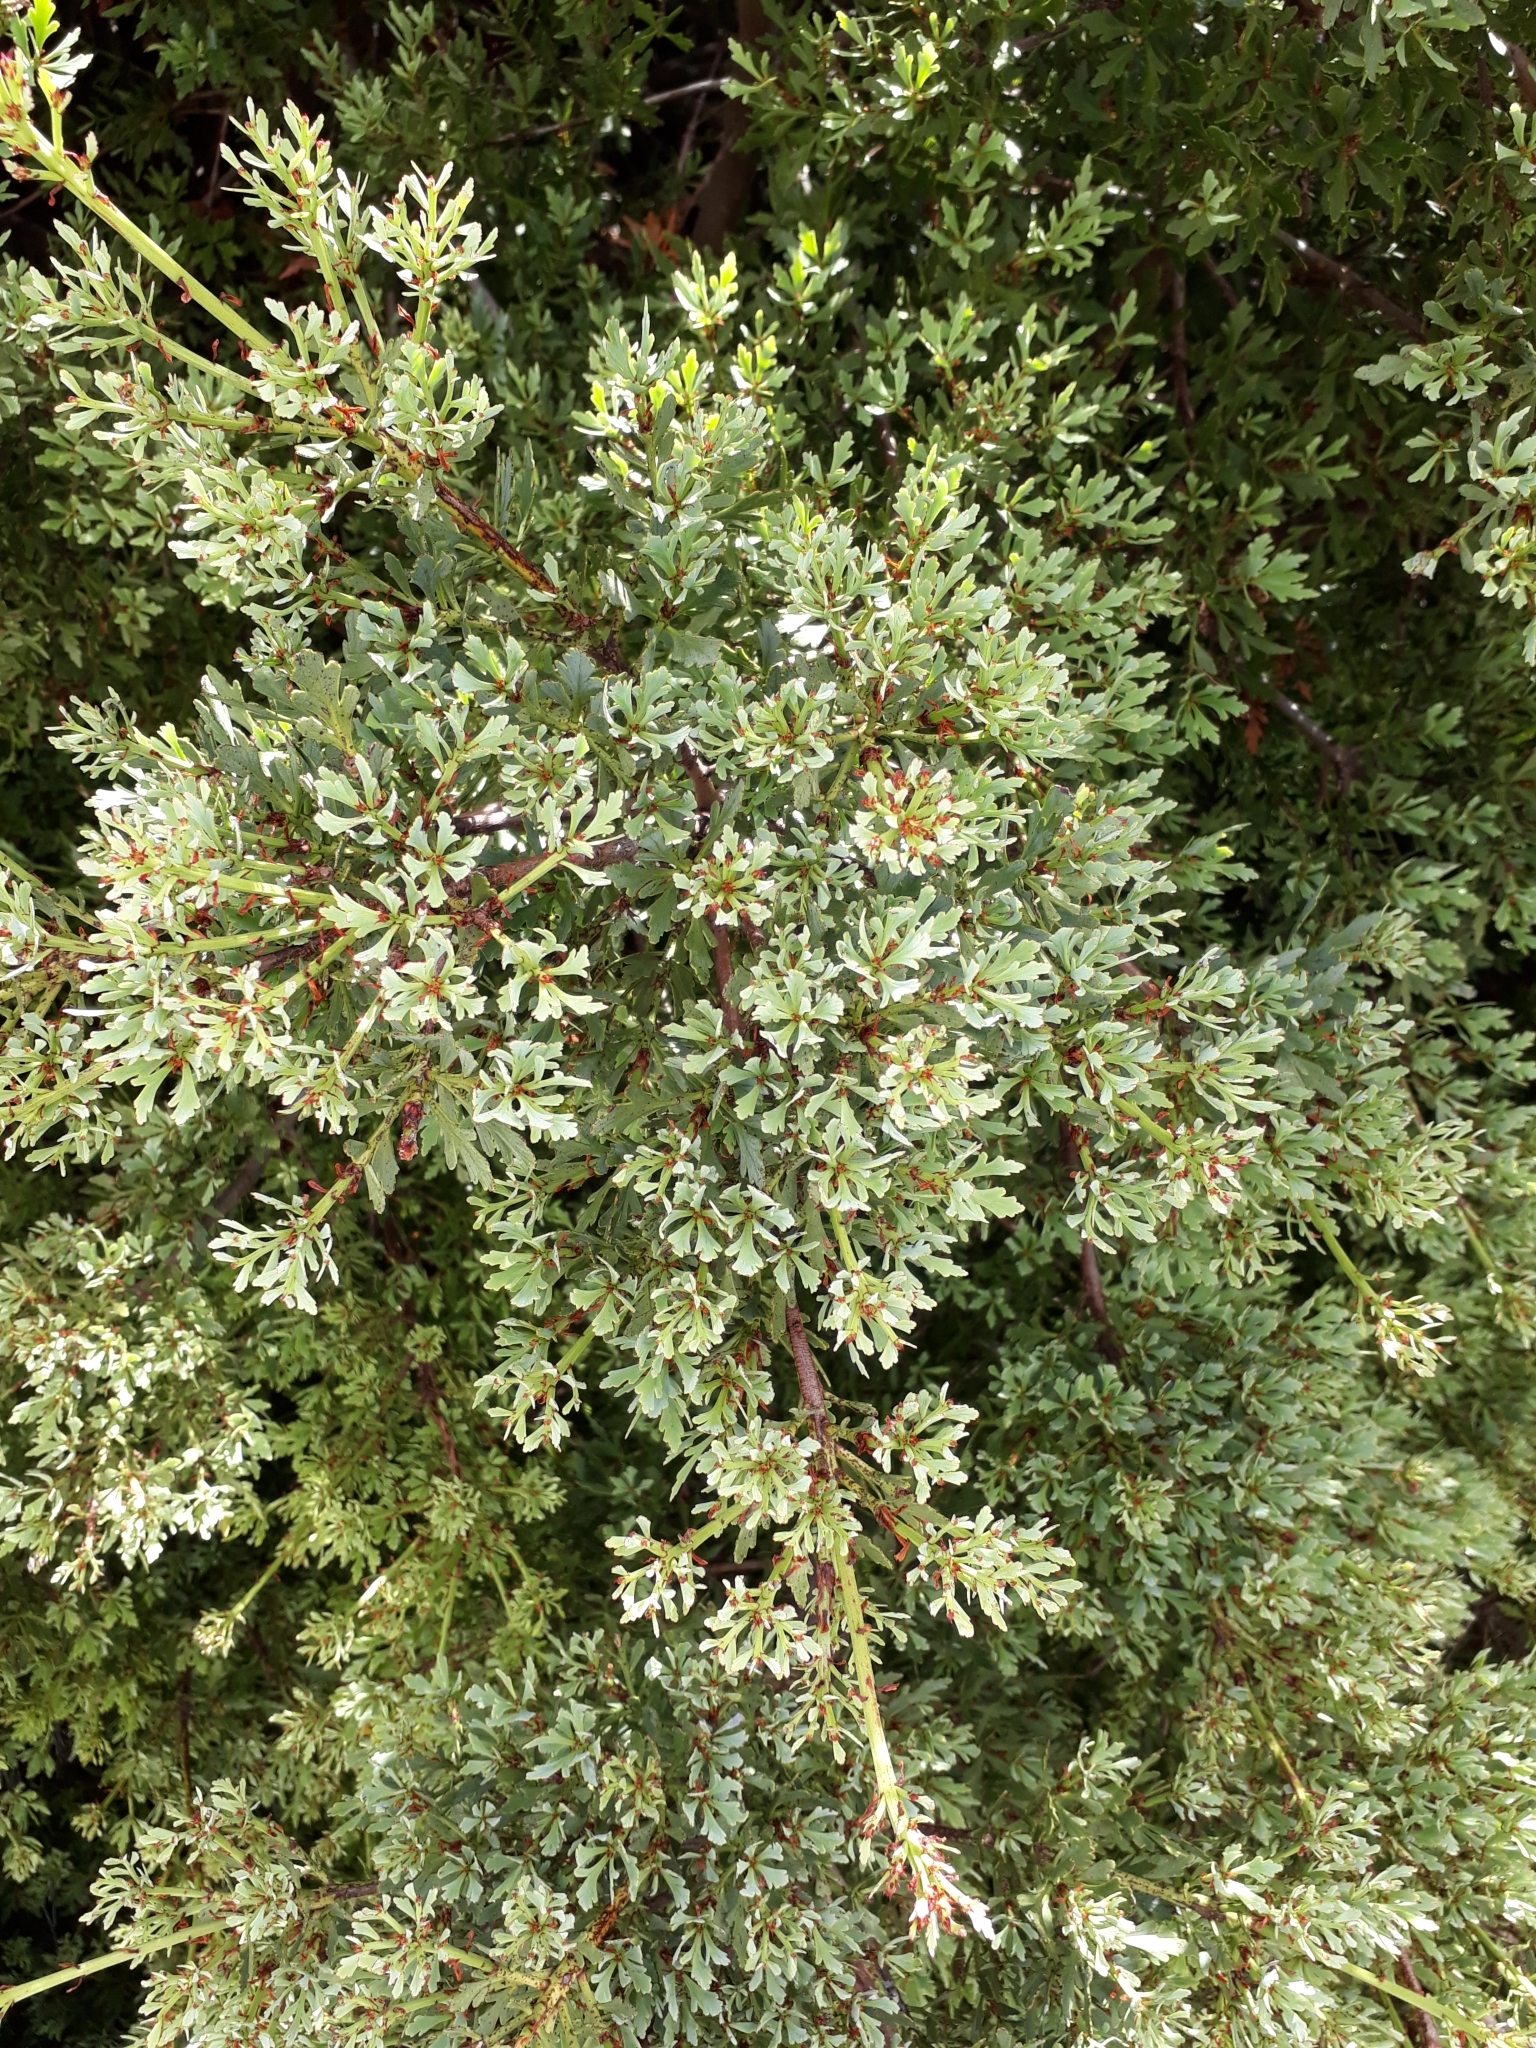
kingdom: Plantae
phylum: Tracheophyta
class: Pinopsida
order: Pinales
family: Phyllocladaceae
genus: Phyllocladus
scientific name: Phyllocladus trichomanoides
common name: Celery pine
